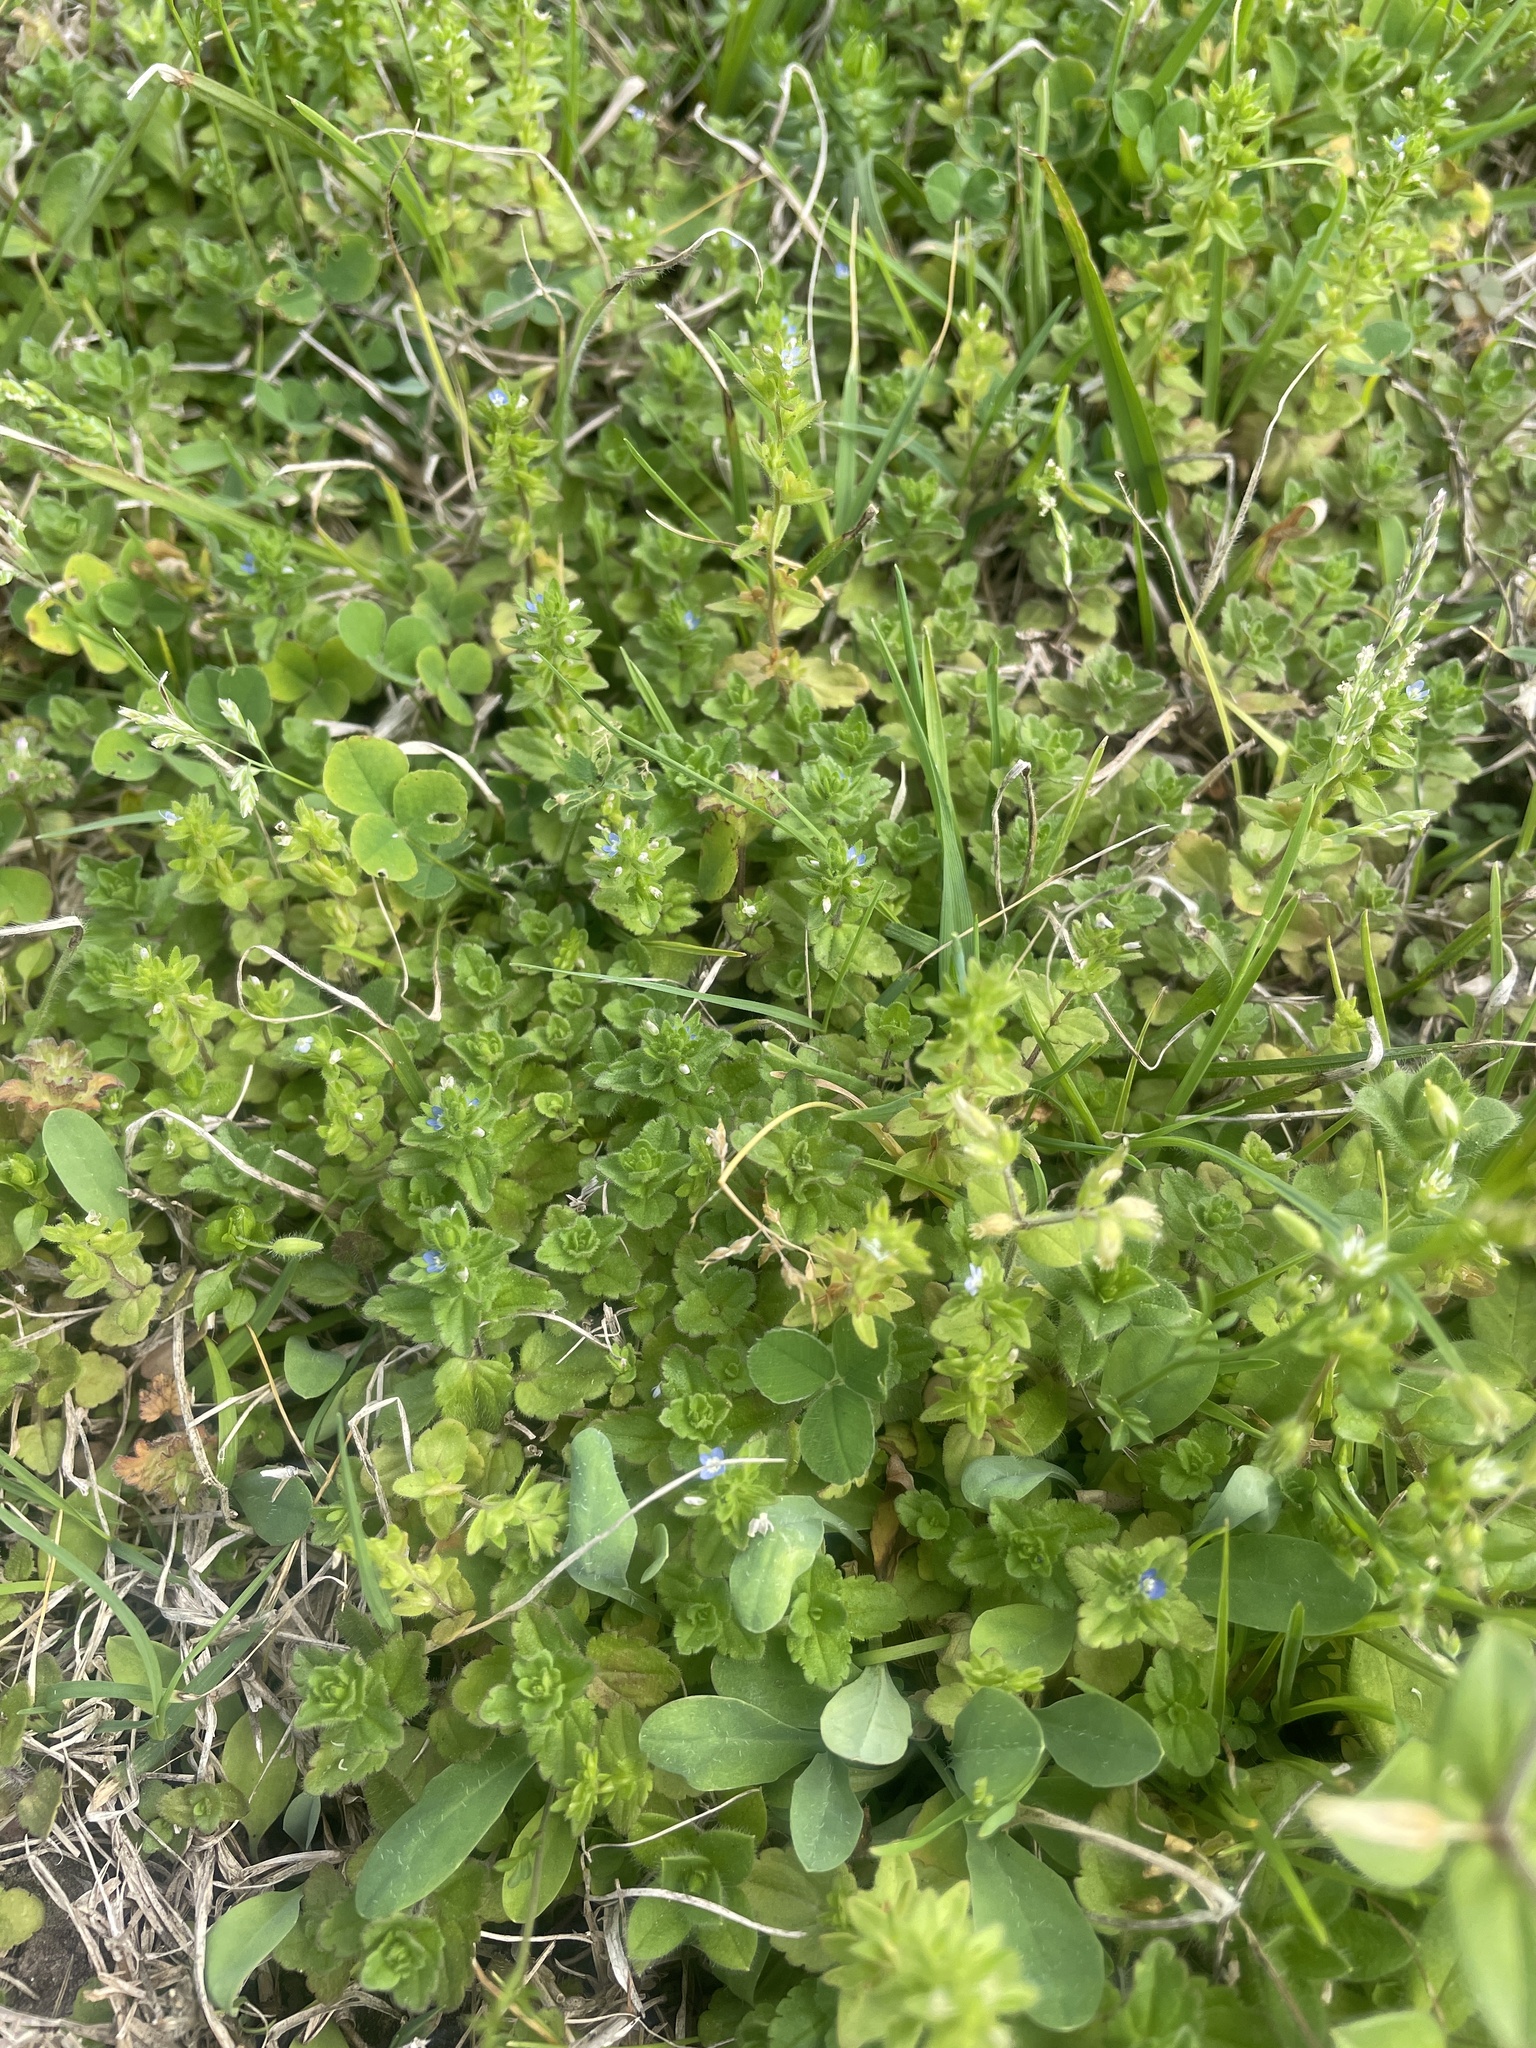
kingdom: Plantae
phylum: Tracheophyta
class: Magnoliopsida
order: Lamiales
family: Plantaginaceae
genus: Veronica
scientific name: Veronica arvensis
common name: Corn speedwell
